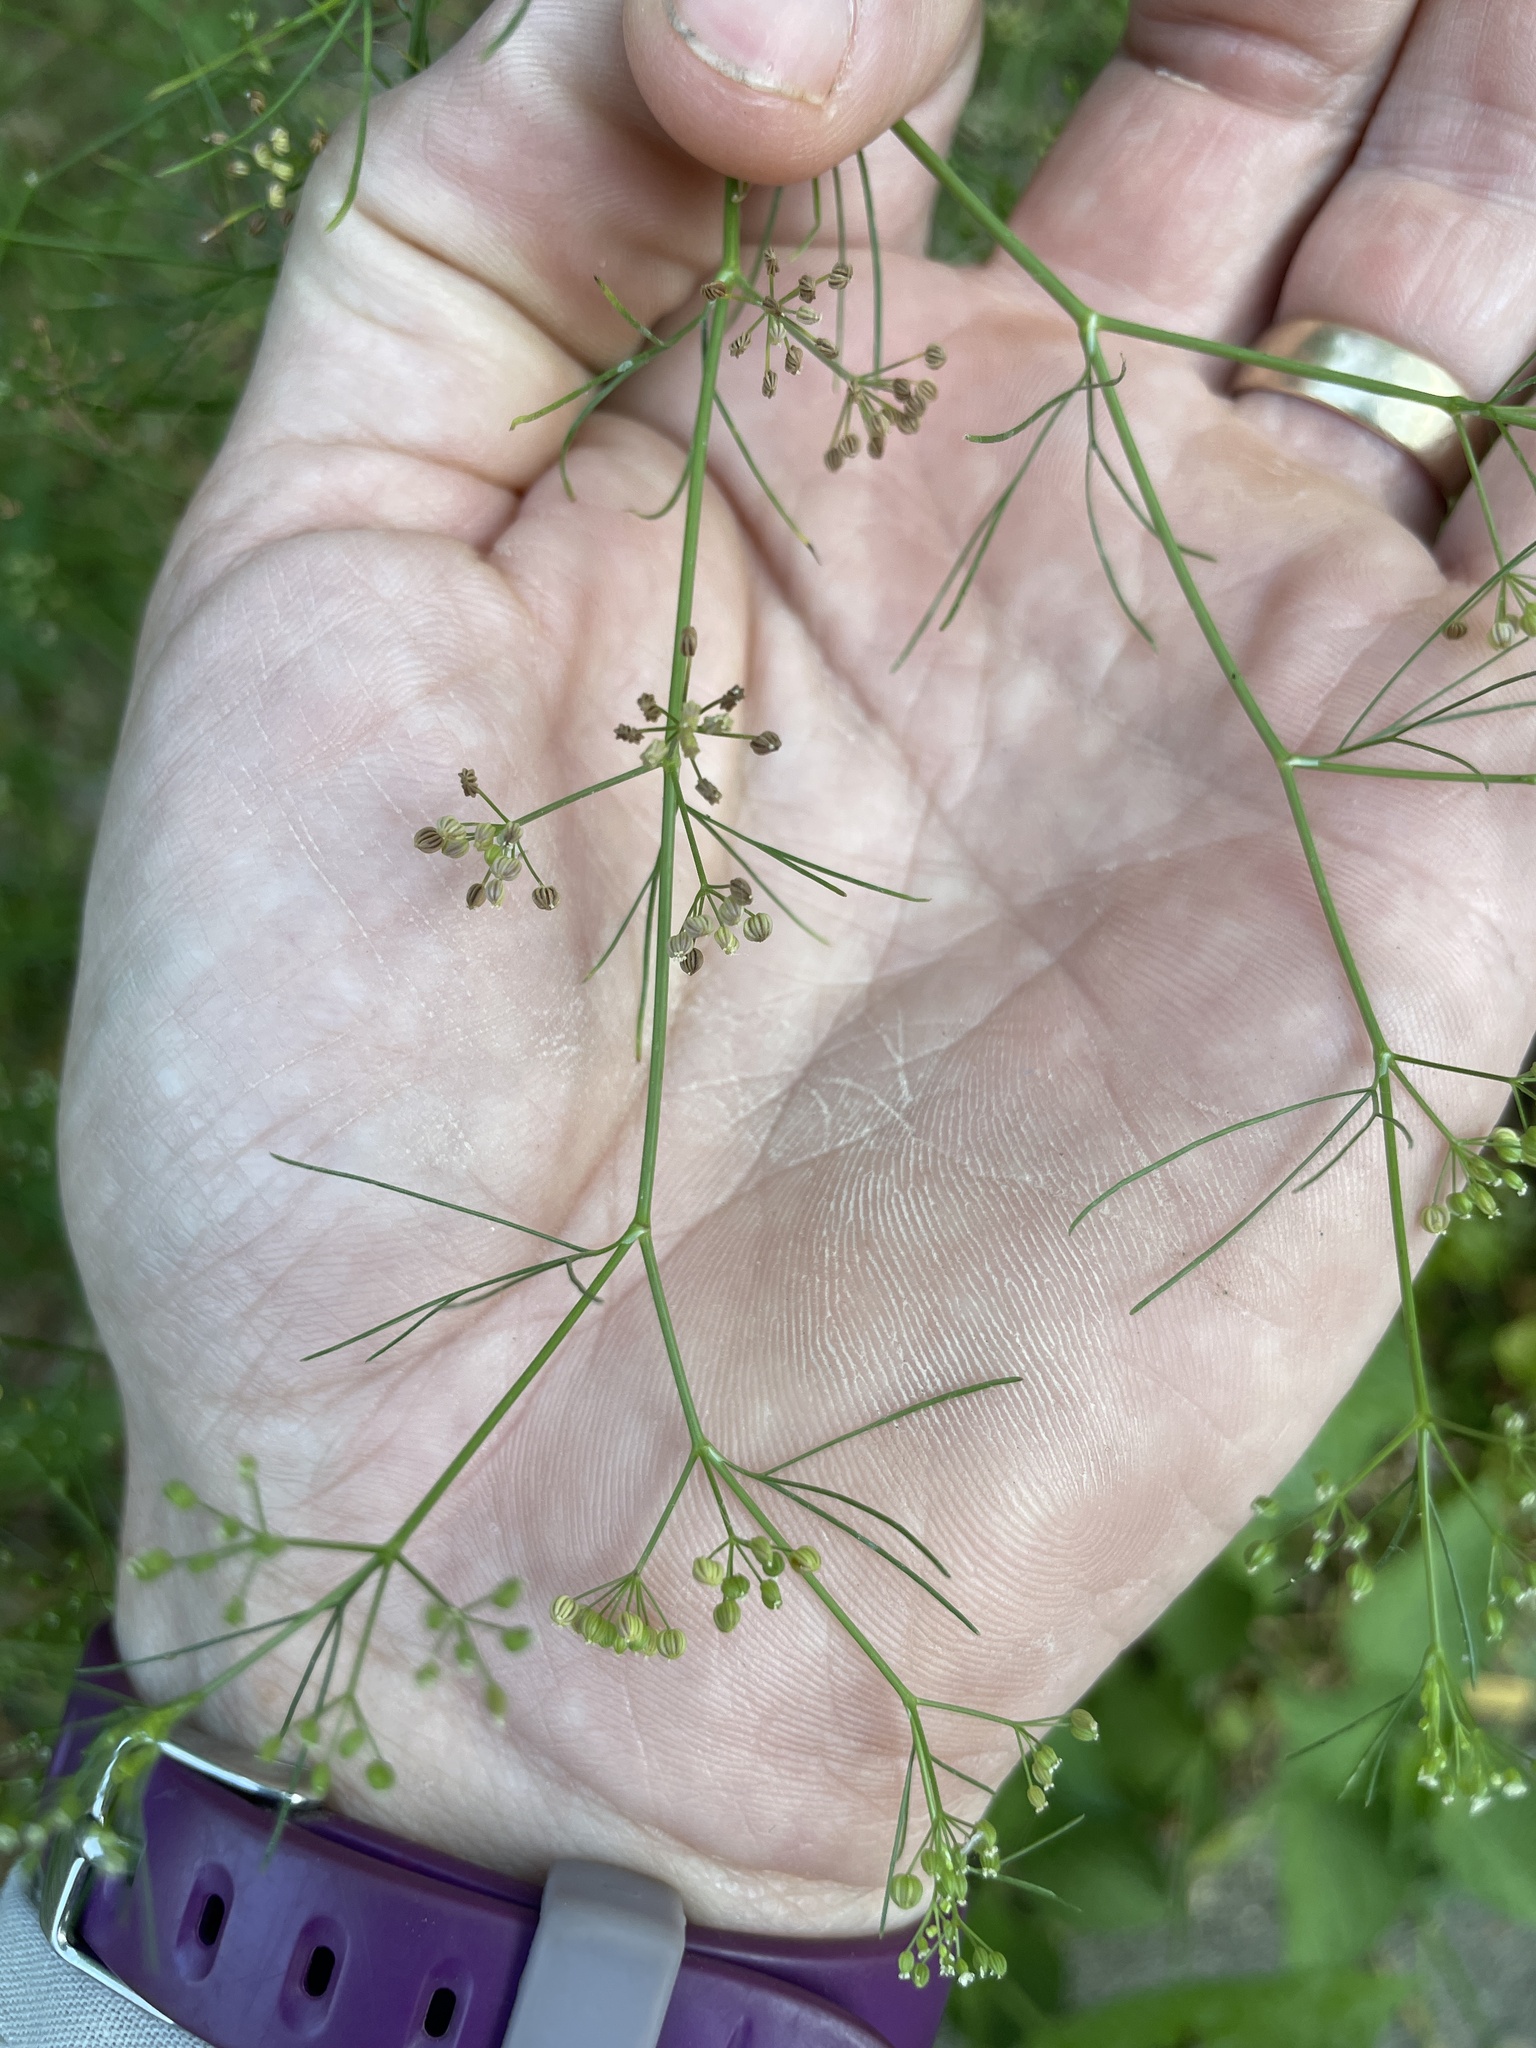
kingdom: Plantae
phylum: Tracheophyta
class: Magnoliopsida
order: Apiales
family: Apiaceae
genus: Cyclospermum
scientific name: Cyclospermum leptophyllum
